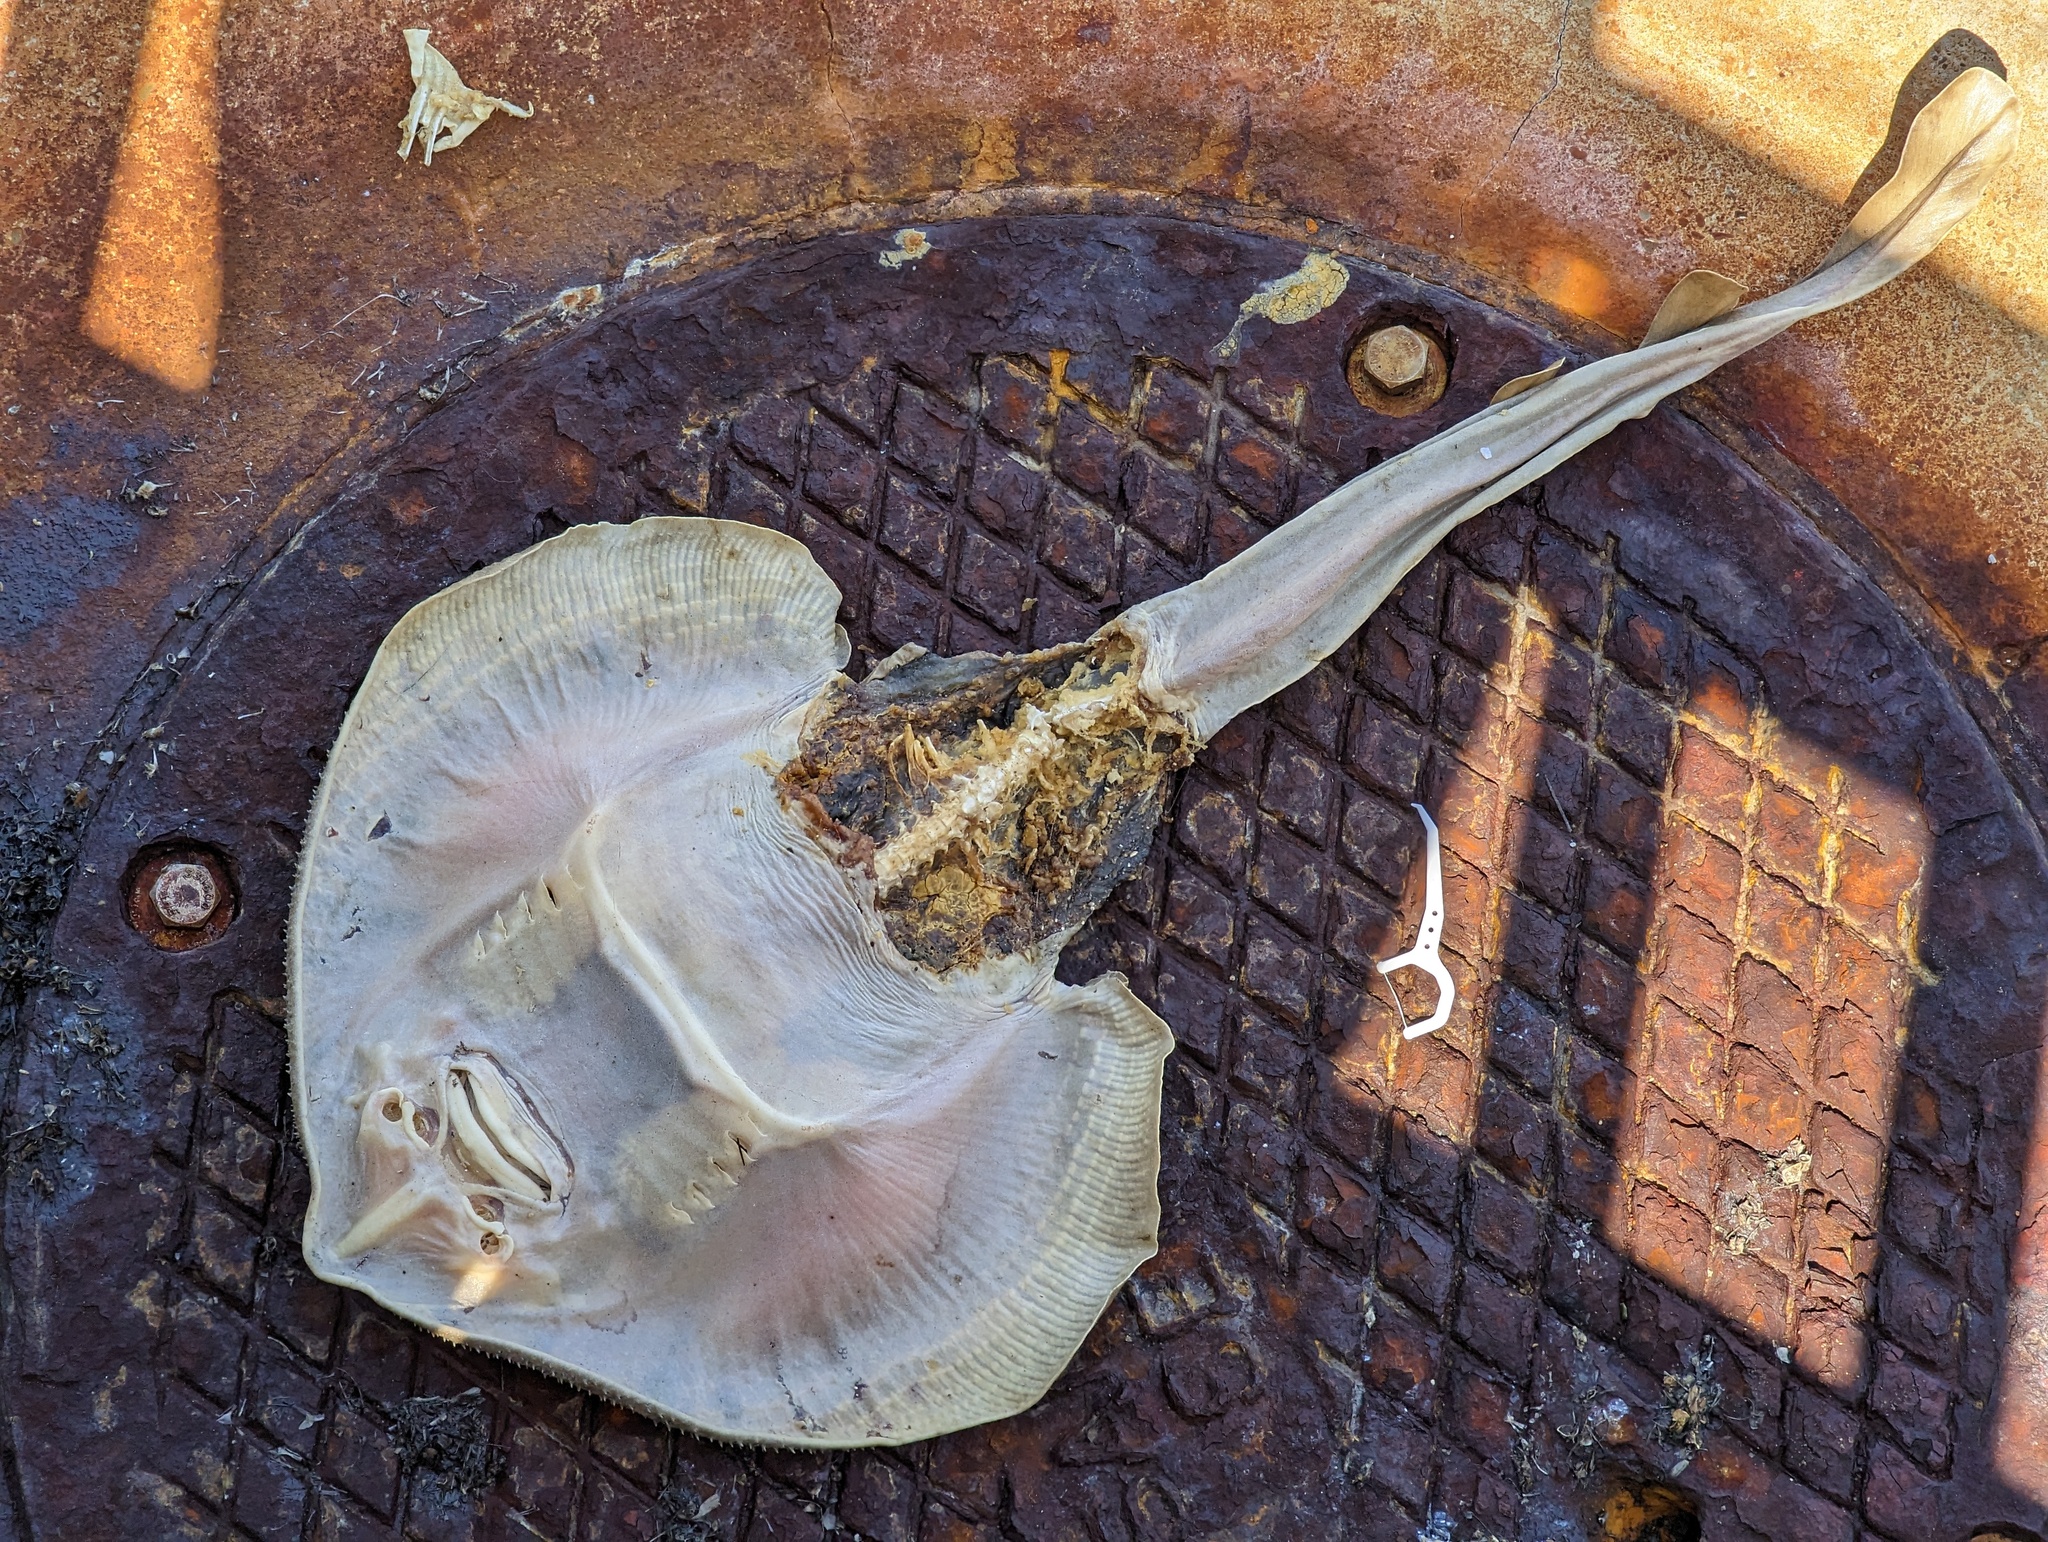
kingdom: Animalia
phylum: Chordata
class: Elasmobranchii
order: Rhinopristiformes
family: Rhinobatidae
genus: Platyrhinoidis
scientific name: Platyrhinoidis triseriata
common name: Thornback
